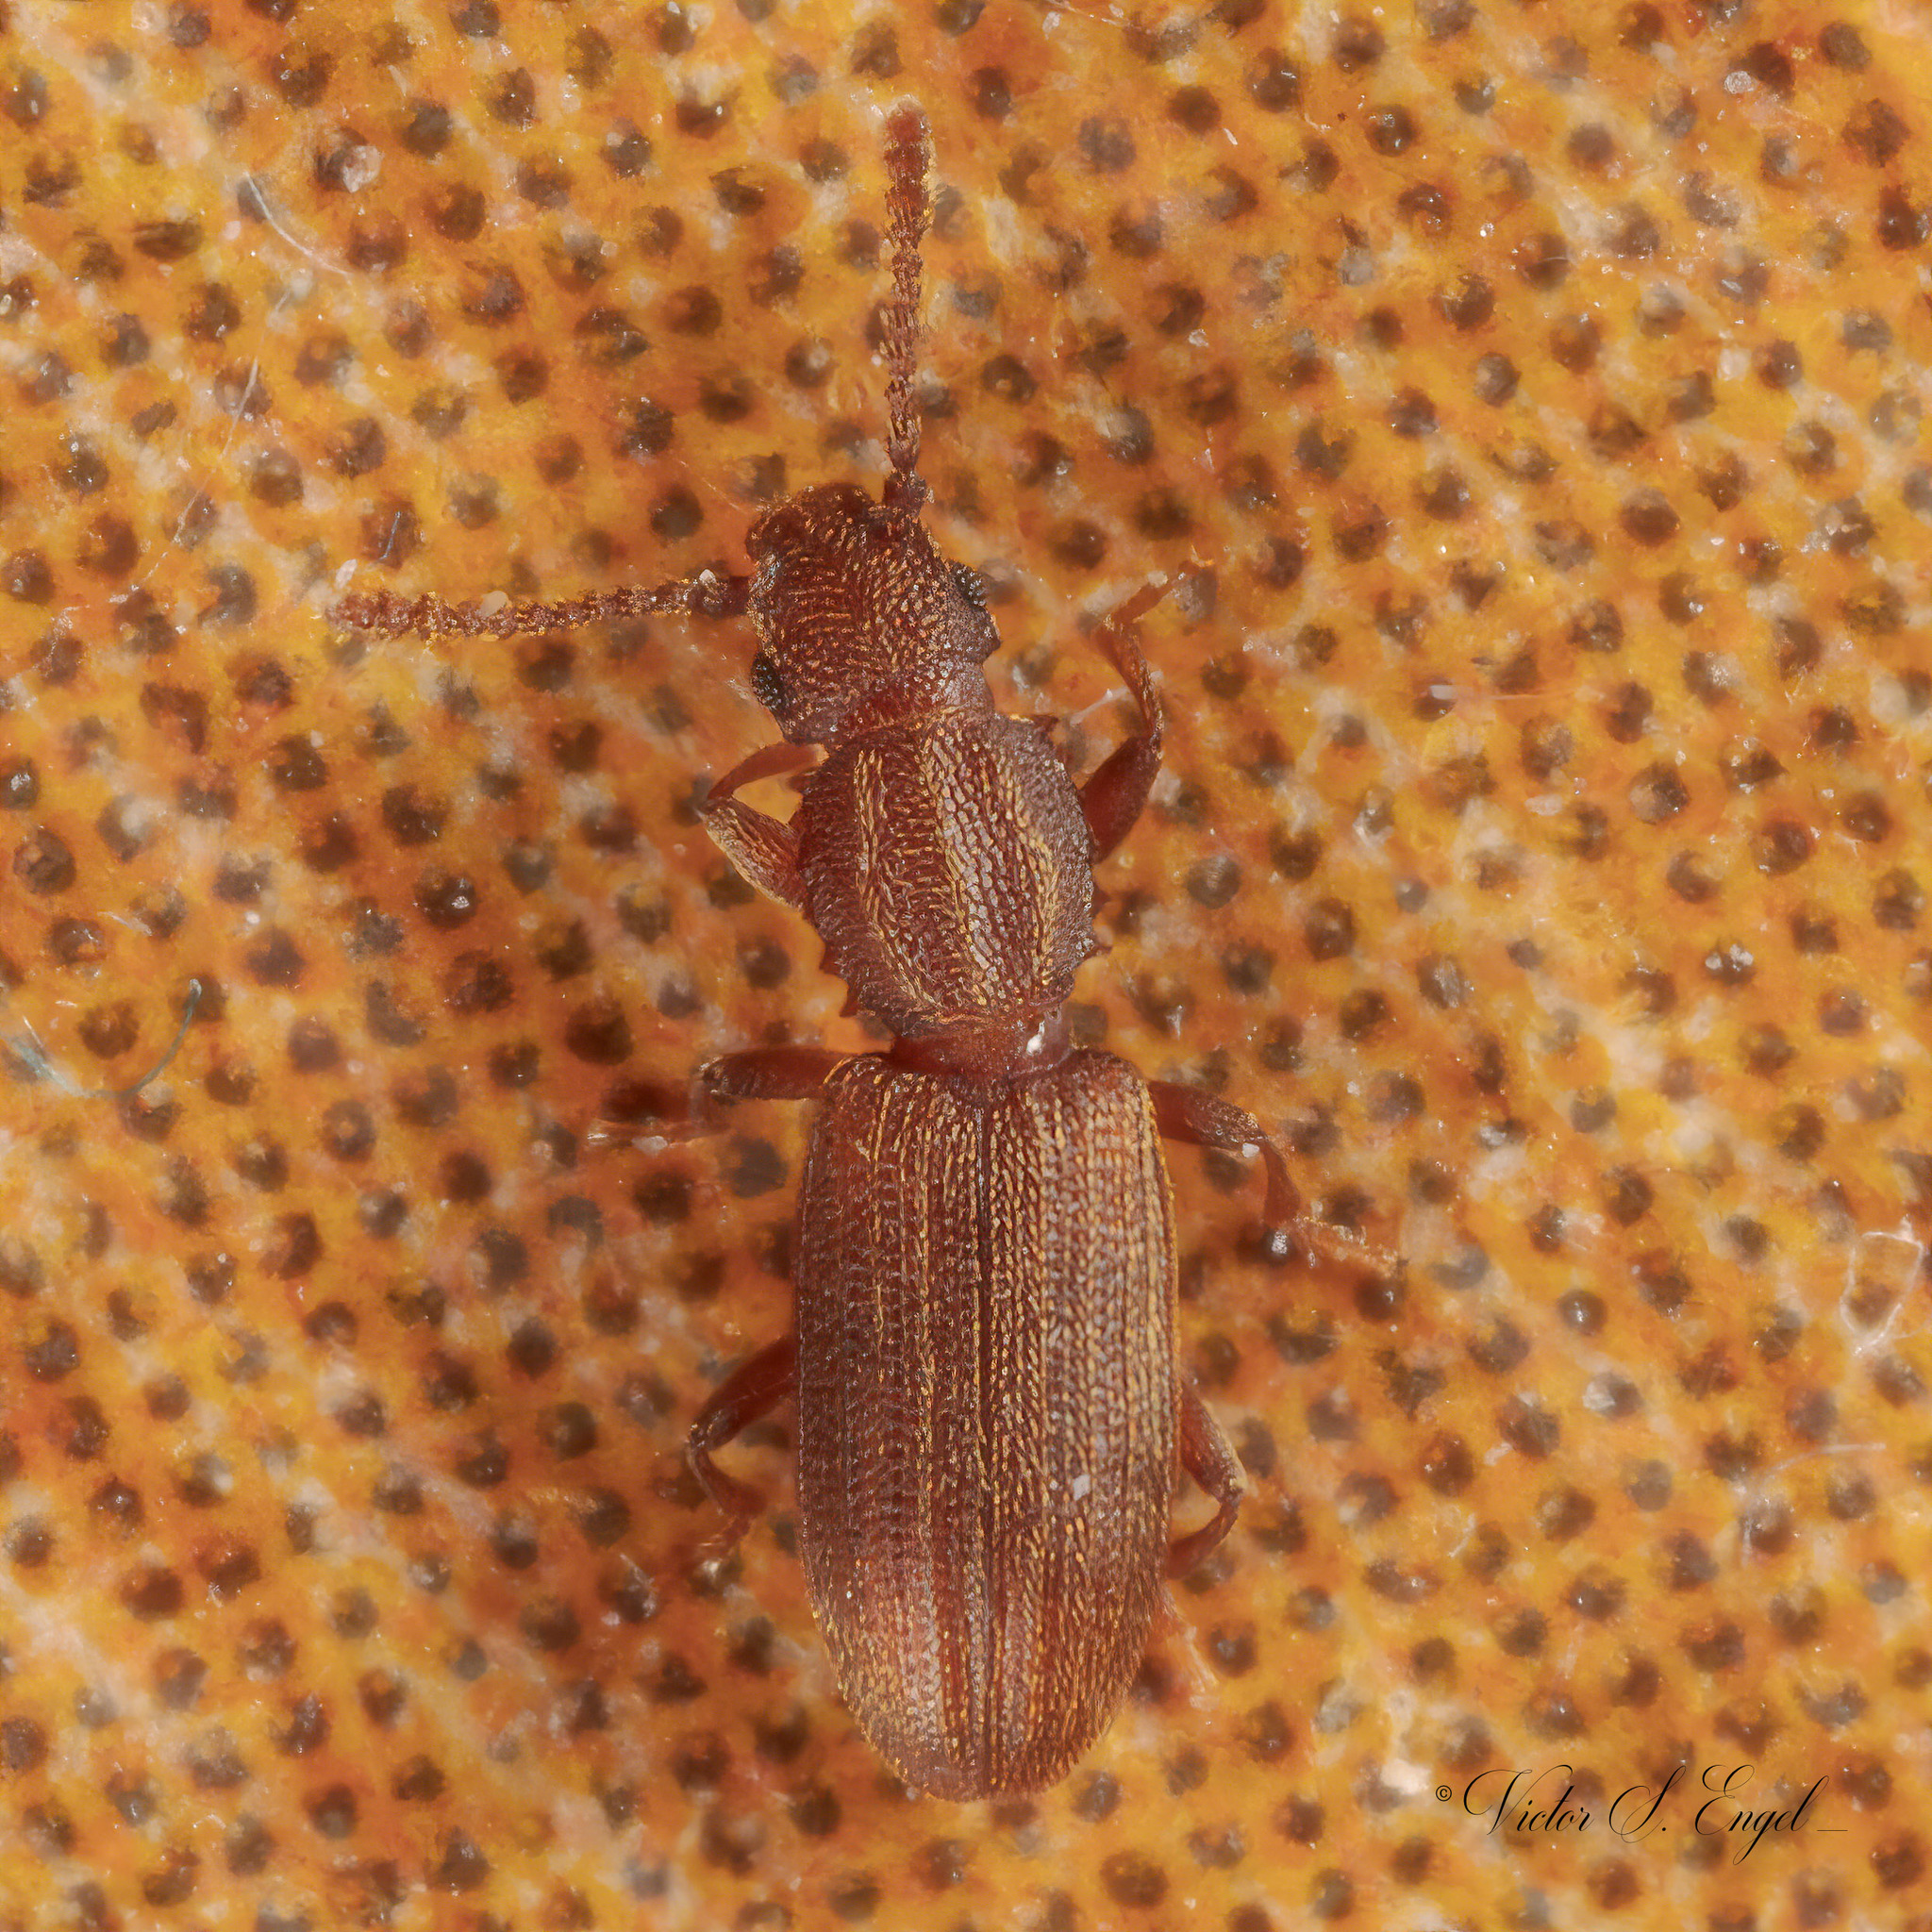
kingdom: Animalia
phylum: Arthropoda
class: Insecta
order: Coleoptera
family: Silvanidae
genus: Oryzaephilus
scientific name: Oryzaephilus surinamensis
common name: Sawtoothed grain beetle
